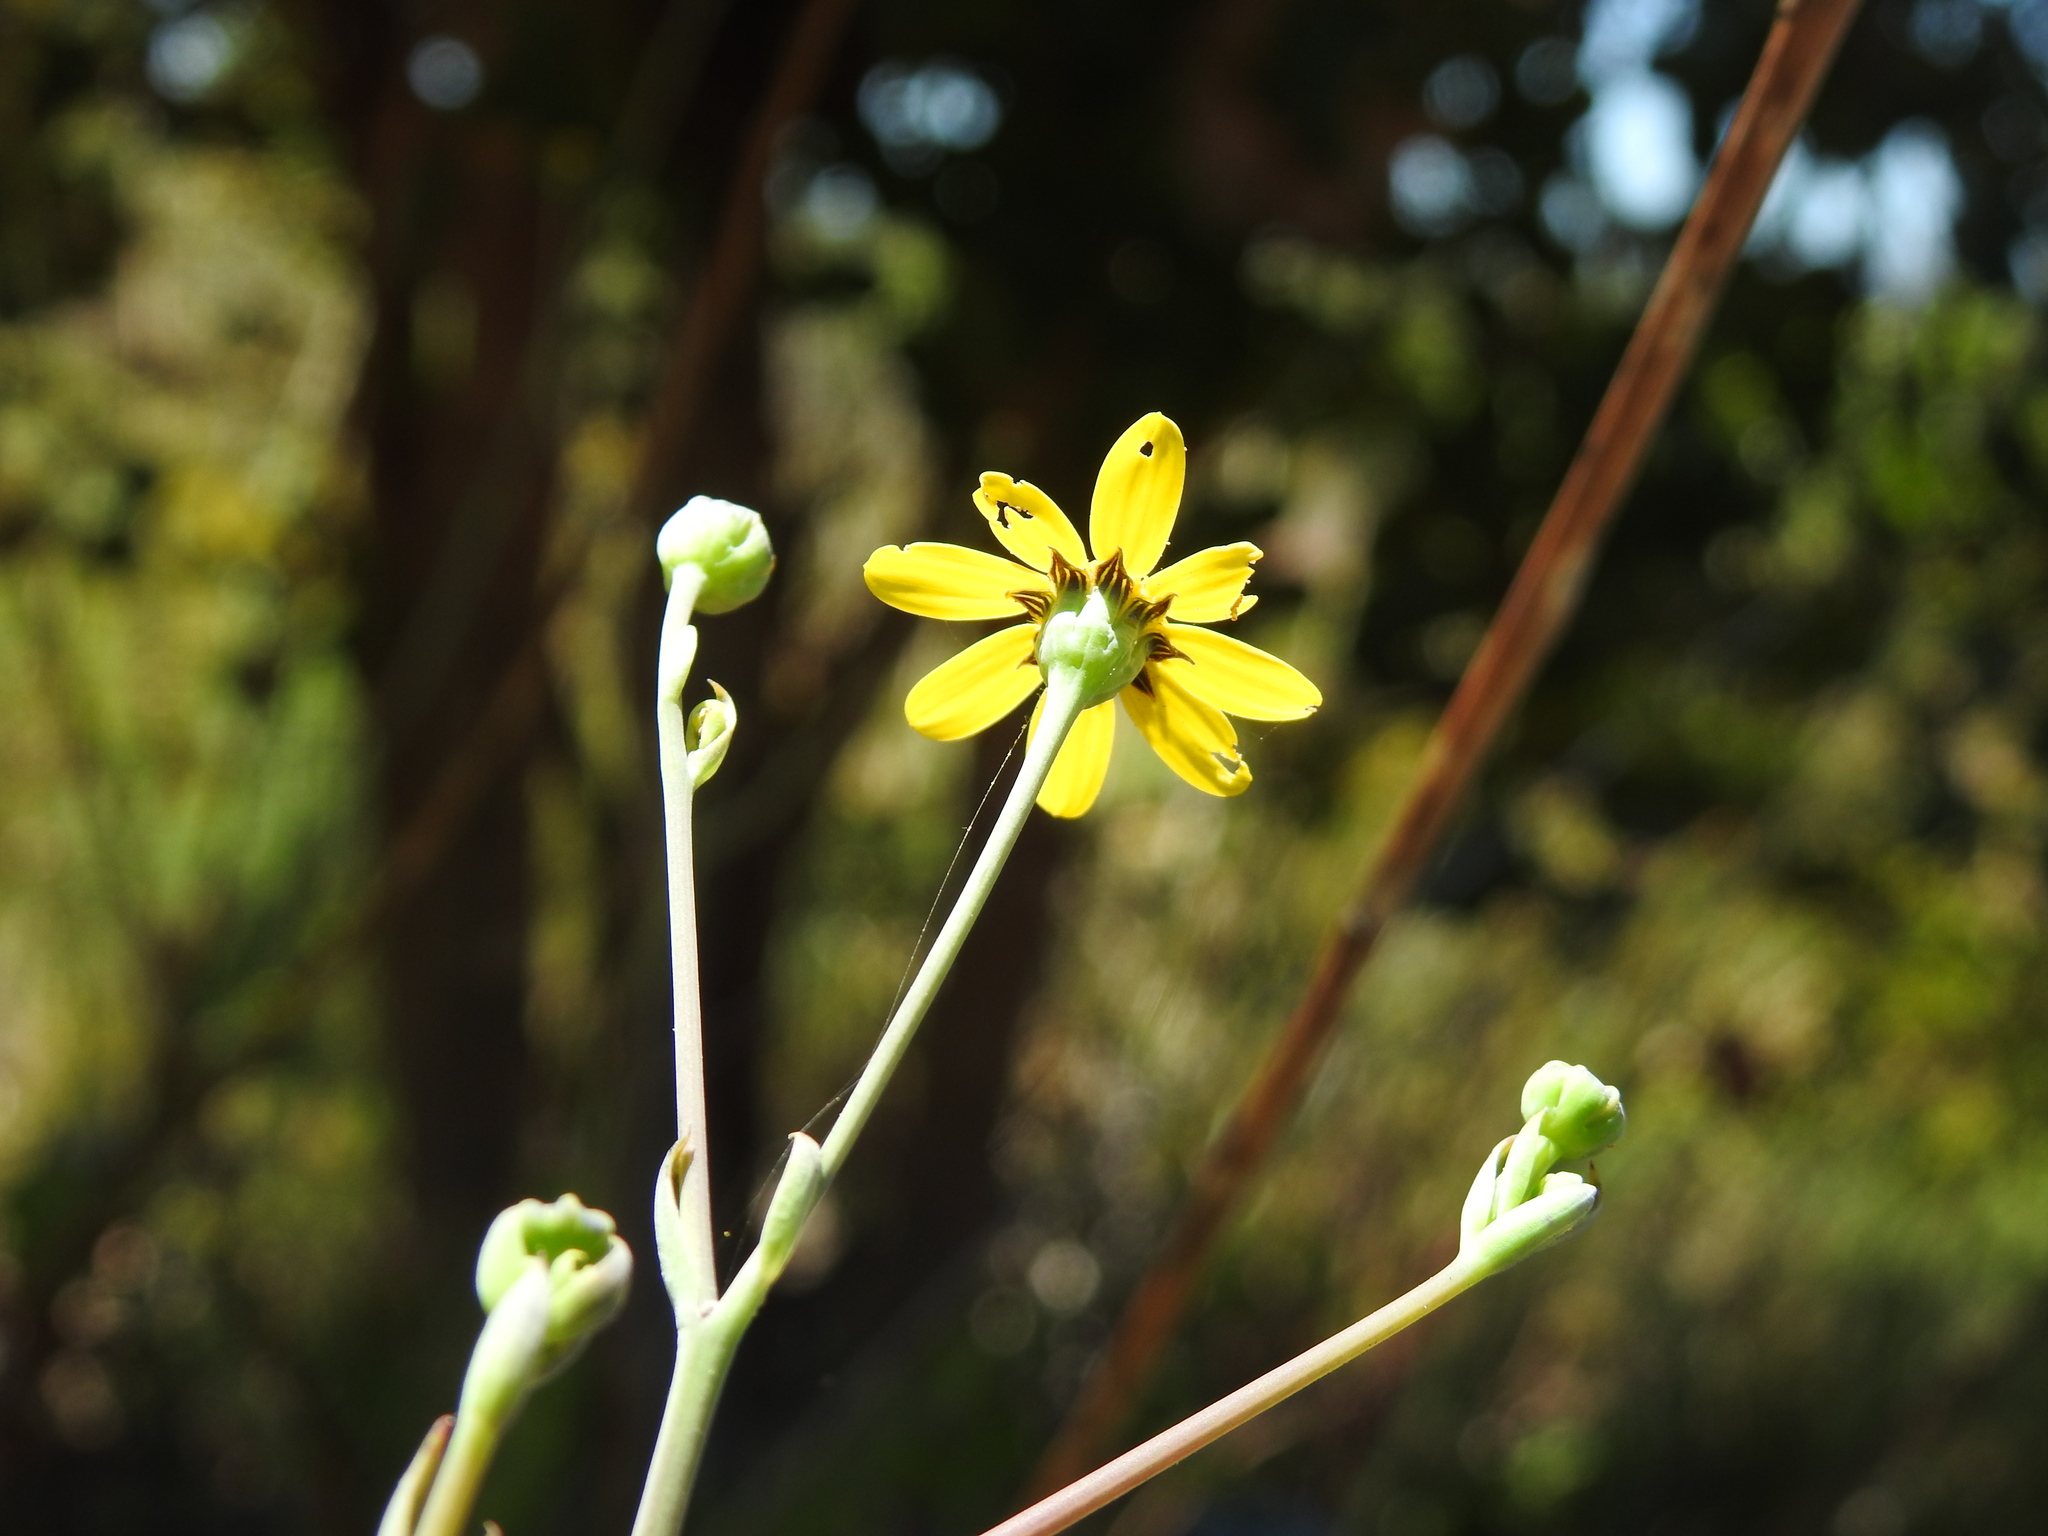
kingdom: Plantae
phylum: Tracheophyta
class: Magnoliopsida
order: Asterales
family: Asteraceae
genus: Othonna
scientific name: Othonna quinquedentata
